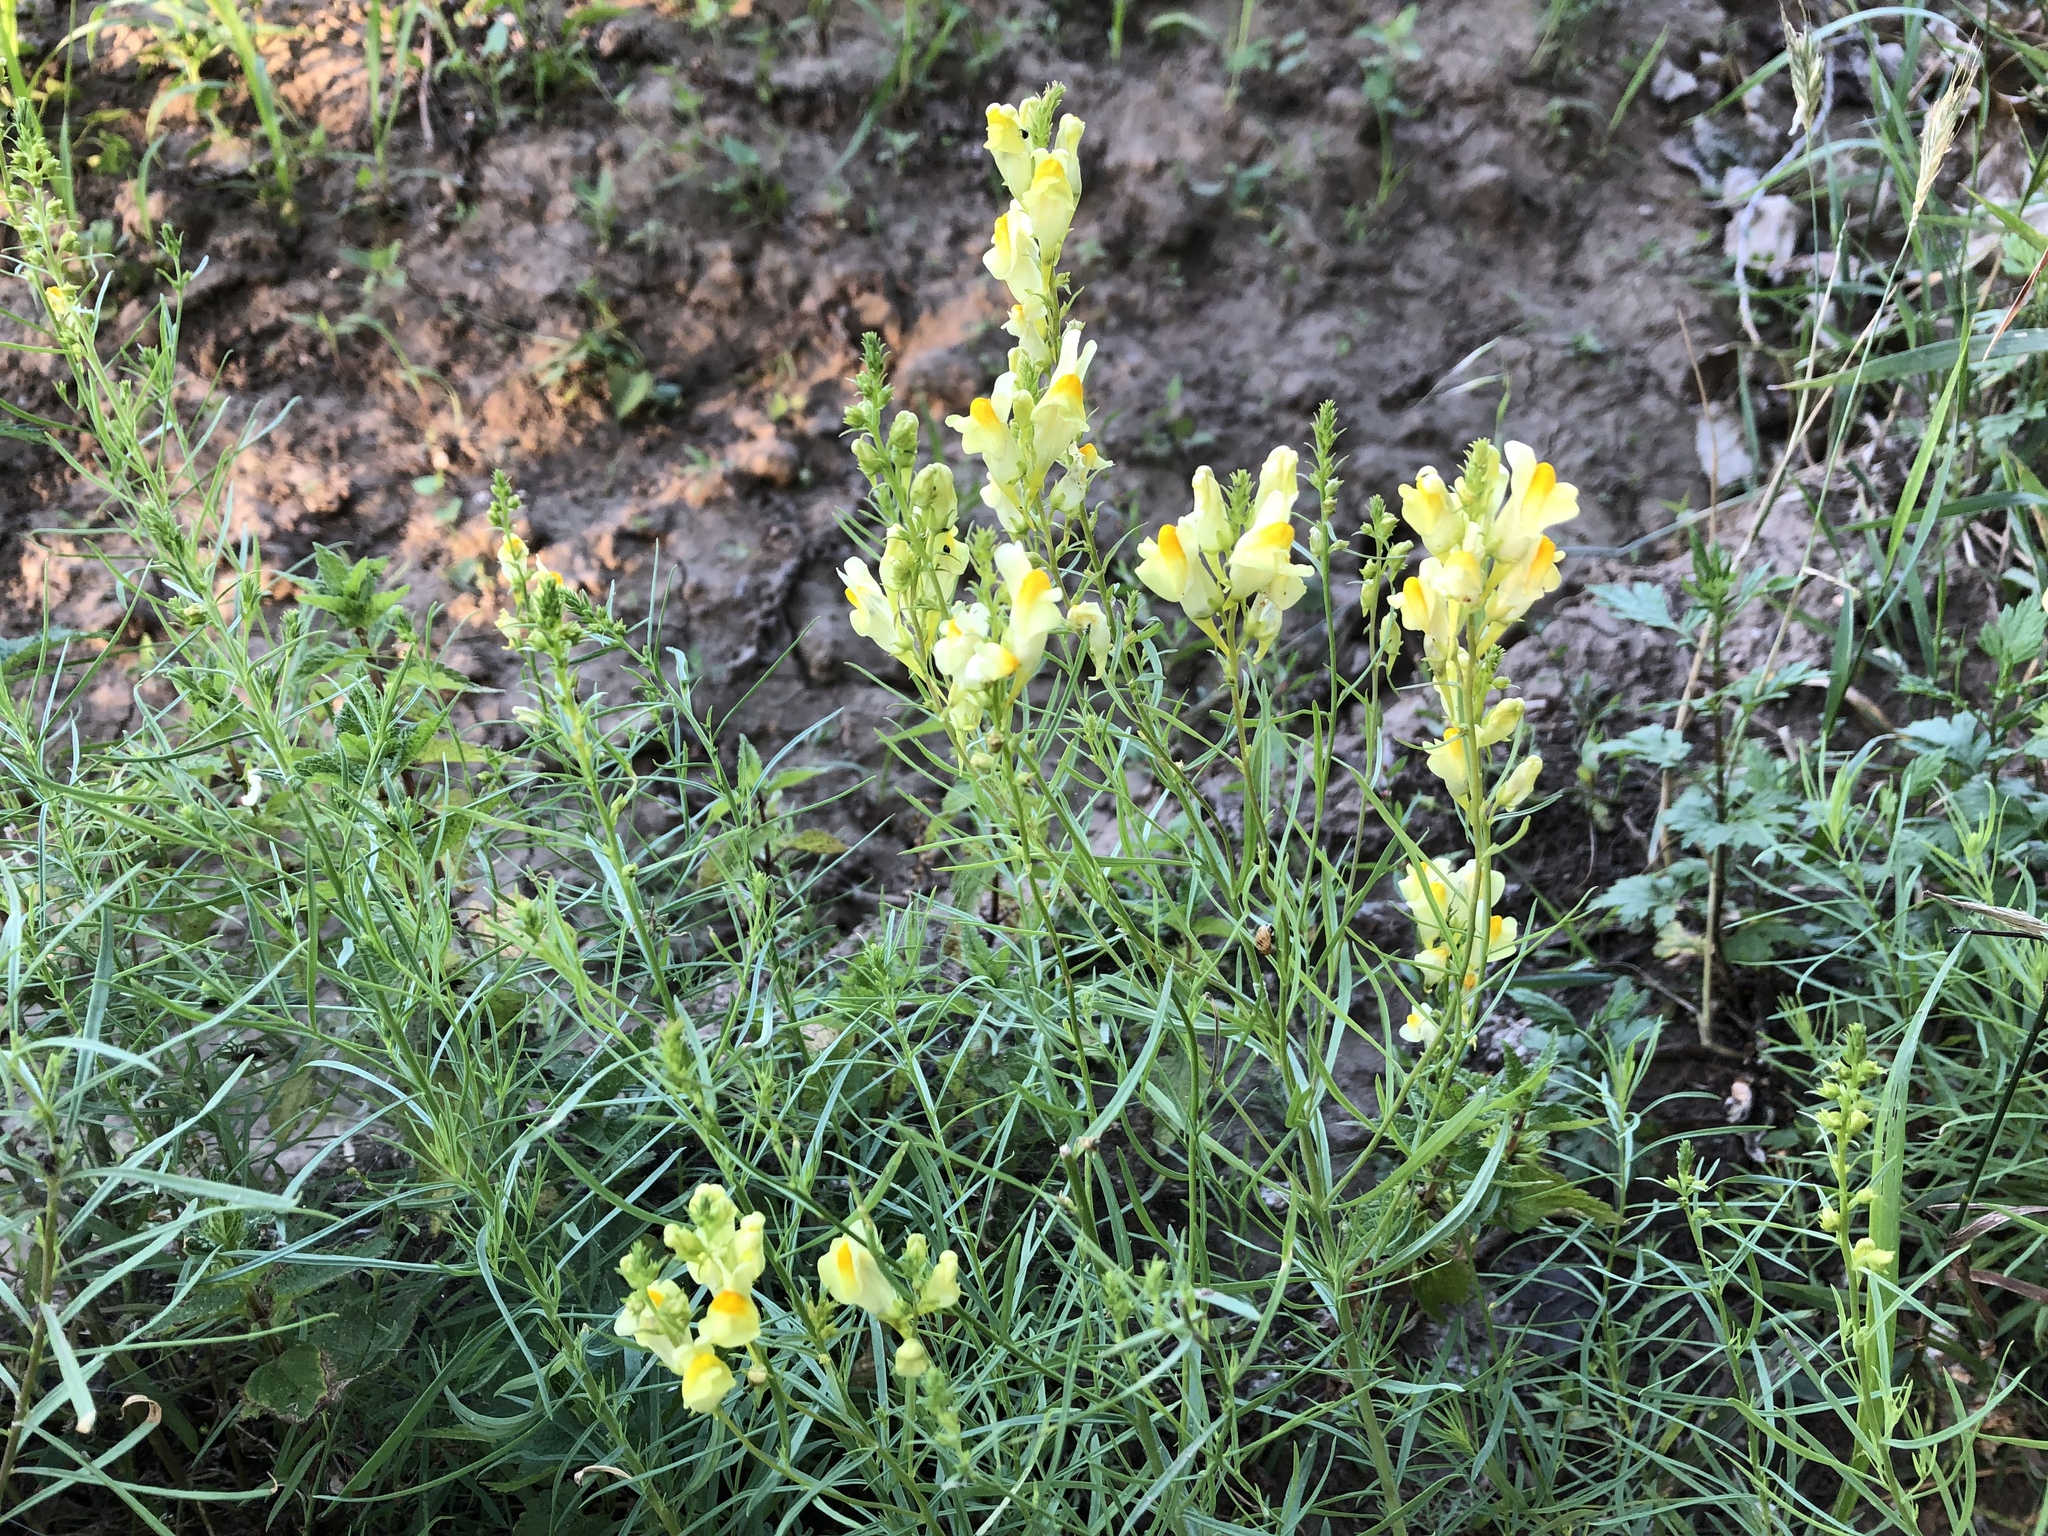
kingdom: Plantae
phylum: Tracheophyta
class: Magnoliopsida
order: Lamiales
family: Plantaginaceae
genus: Linaria
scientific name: Linaria vulgaris
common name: Butter and eggs
